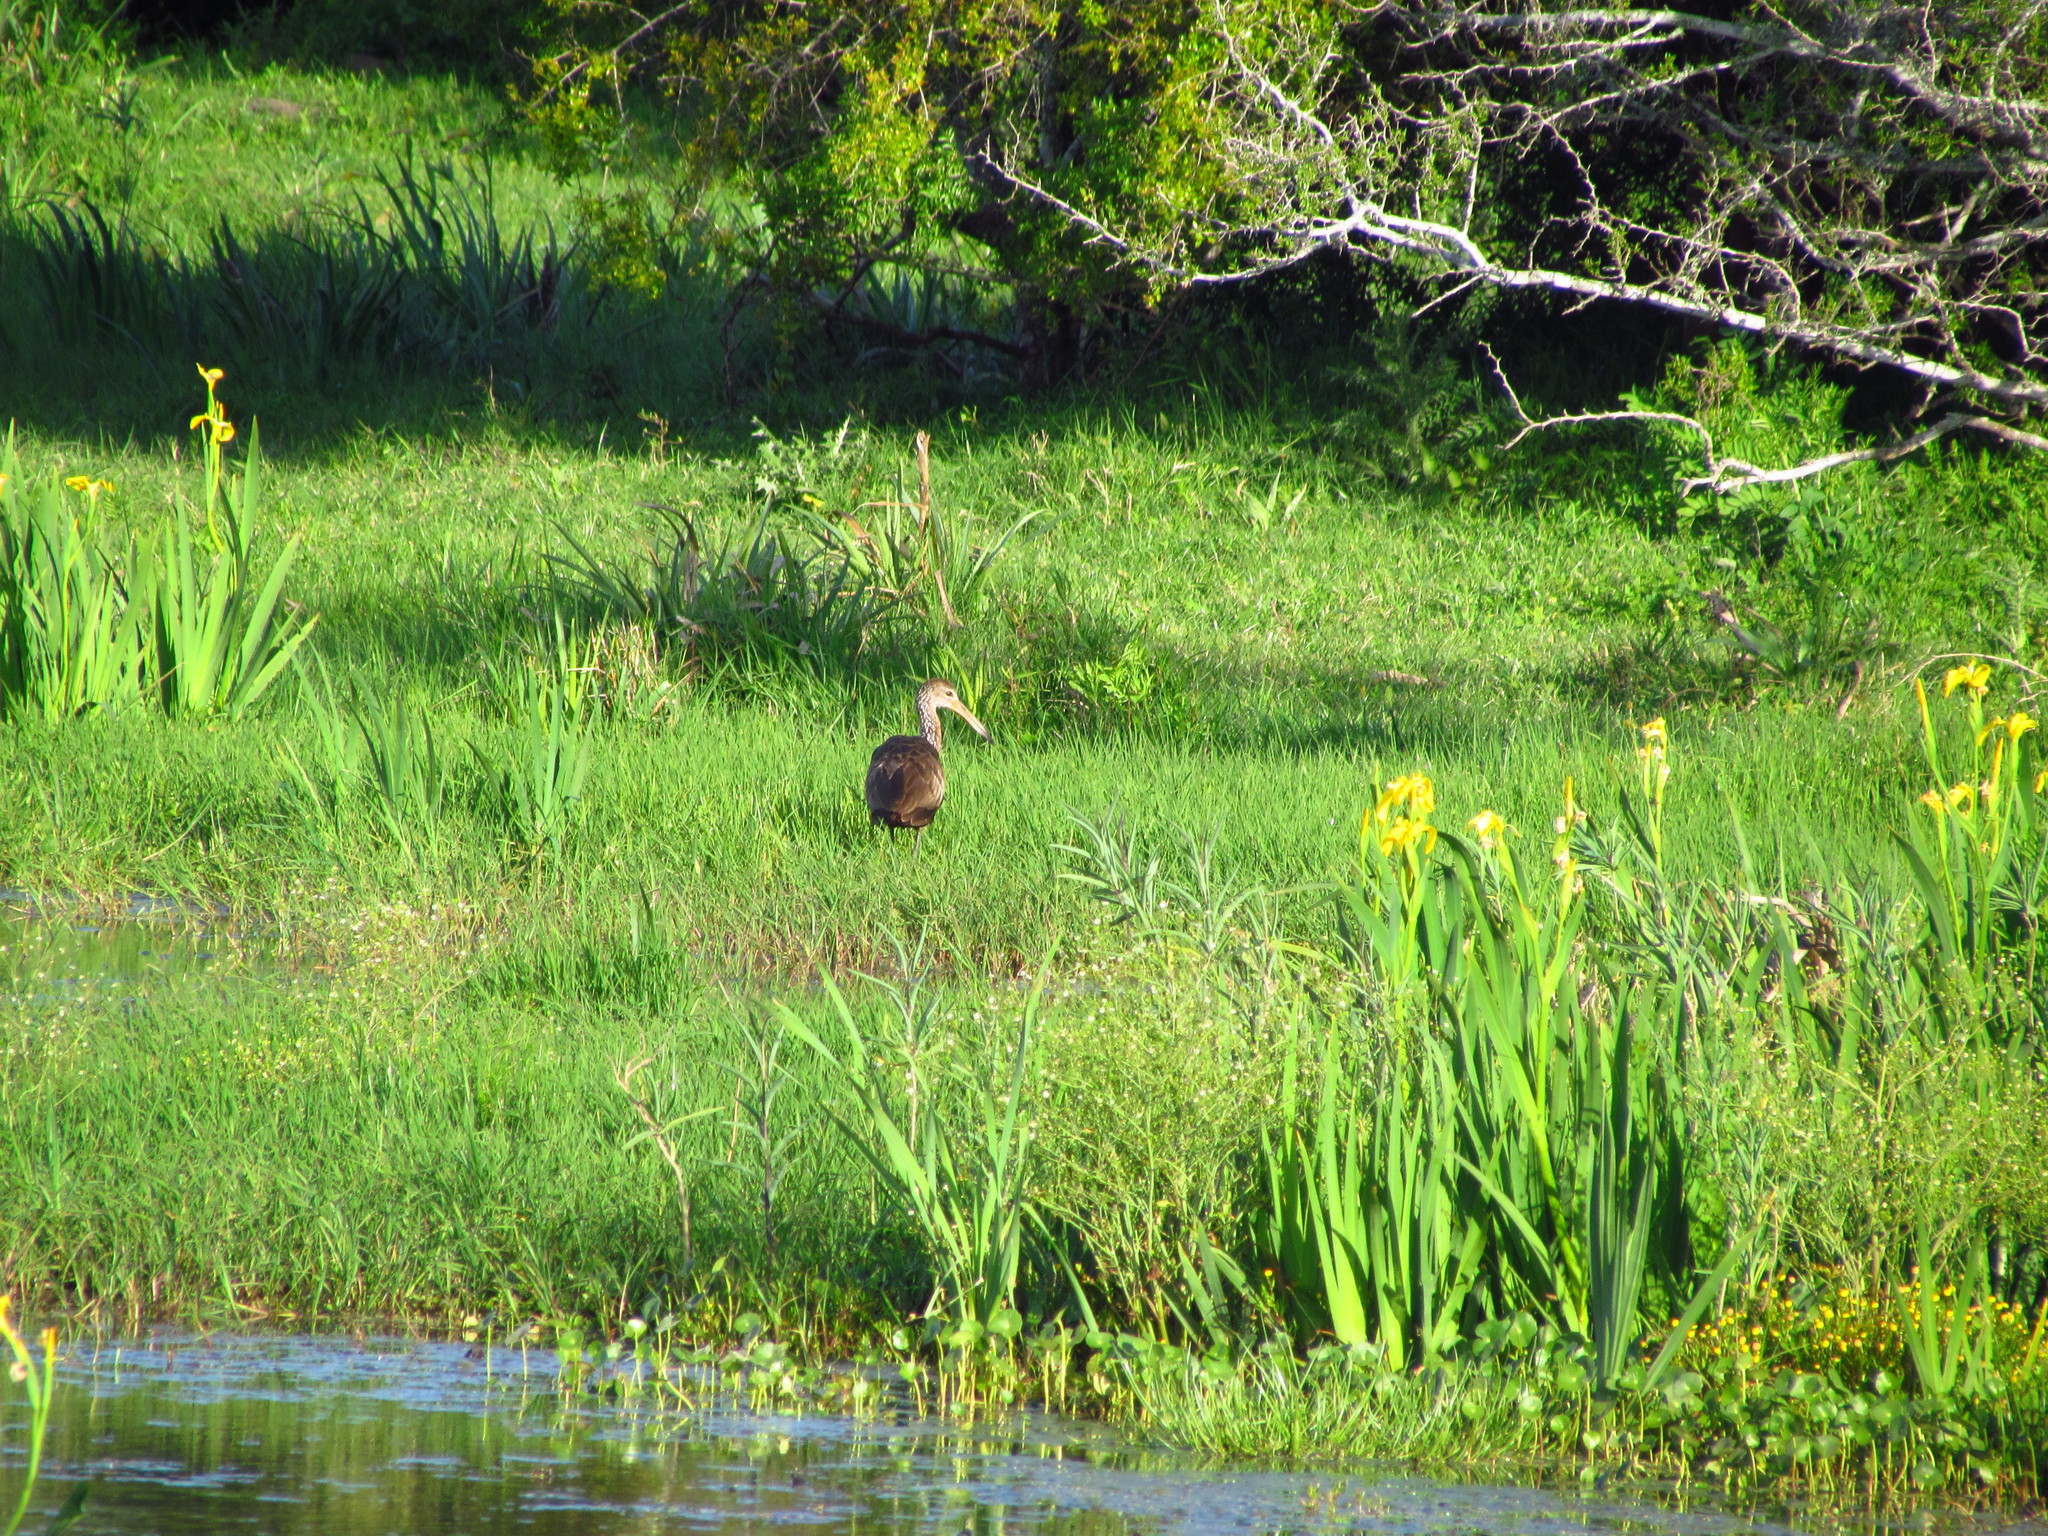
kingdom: Animalia
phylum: Chordata
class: Aves
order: Gruiformes
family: Aramidae
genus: Aramus
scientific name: Aramus guarauna
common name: Limpkin
